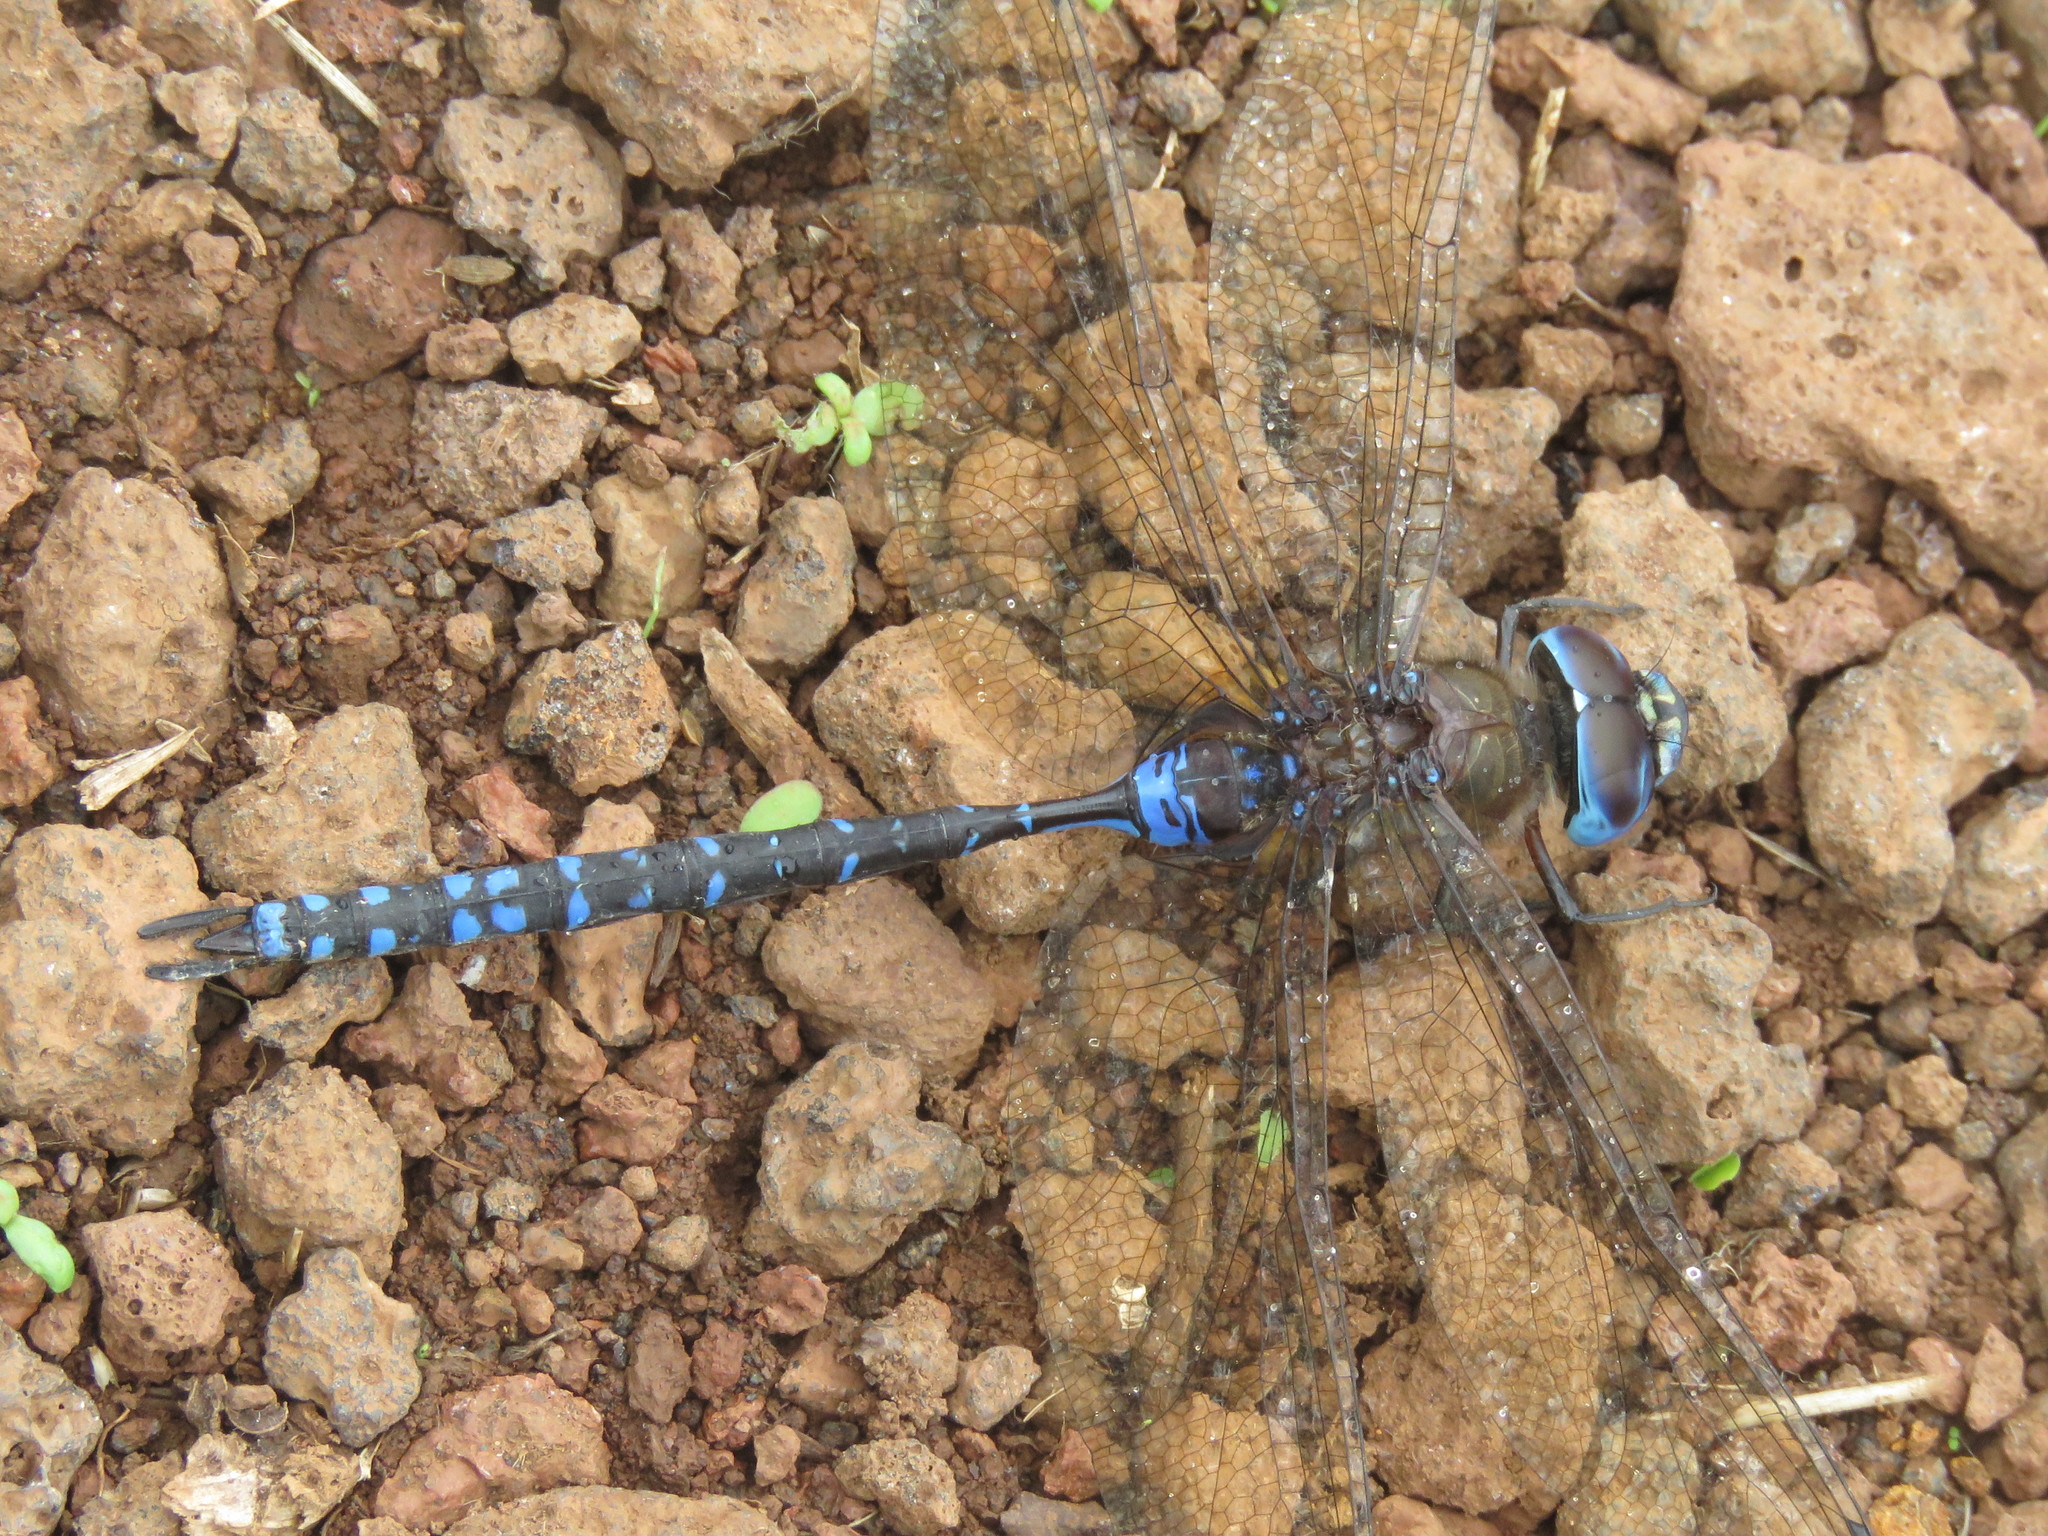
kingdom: Animalia
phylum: Arthropoda
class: Insecta
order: Odonata
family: Aeshnidae
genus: Rhionaeschna
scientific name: Rhionaeschna galapagoensis
